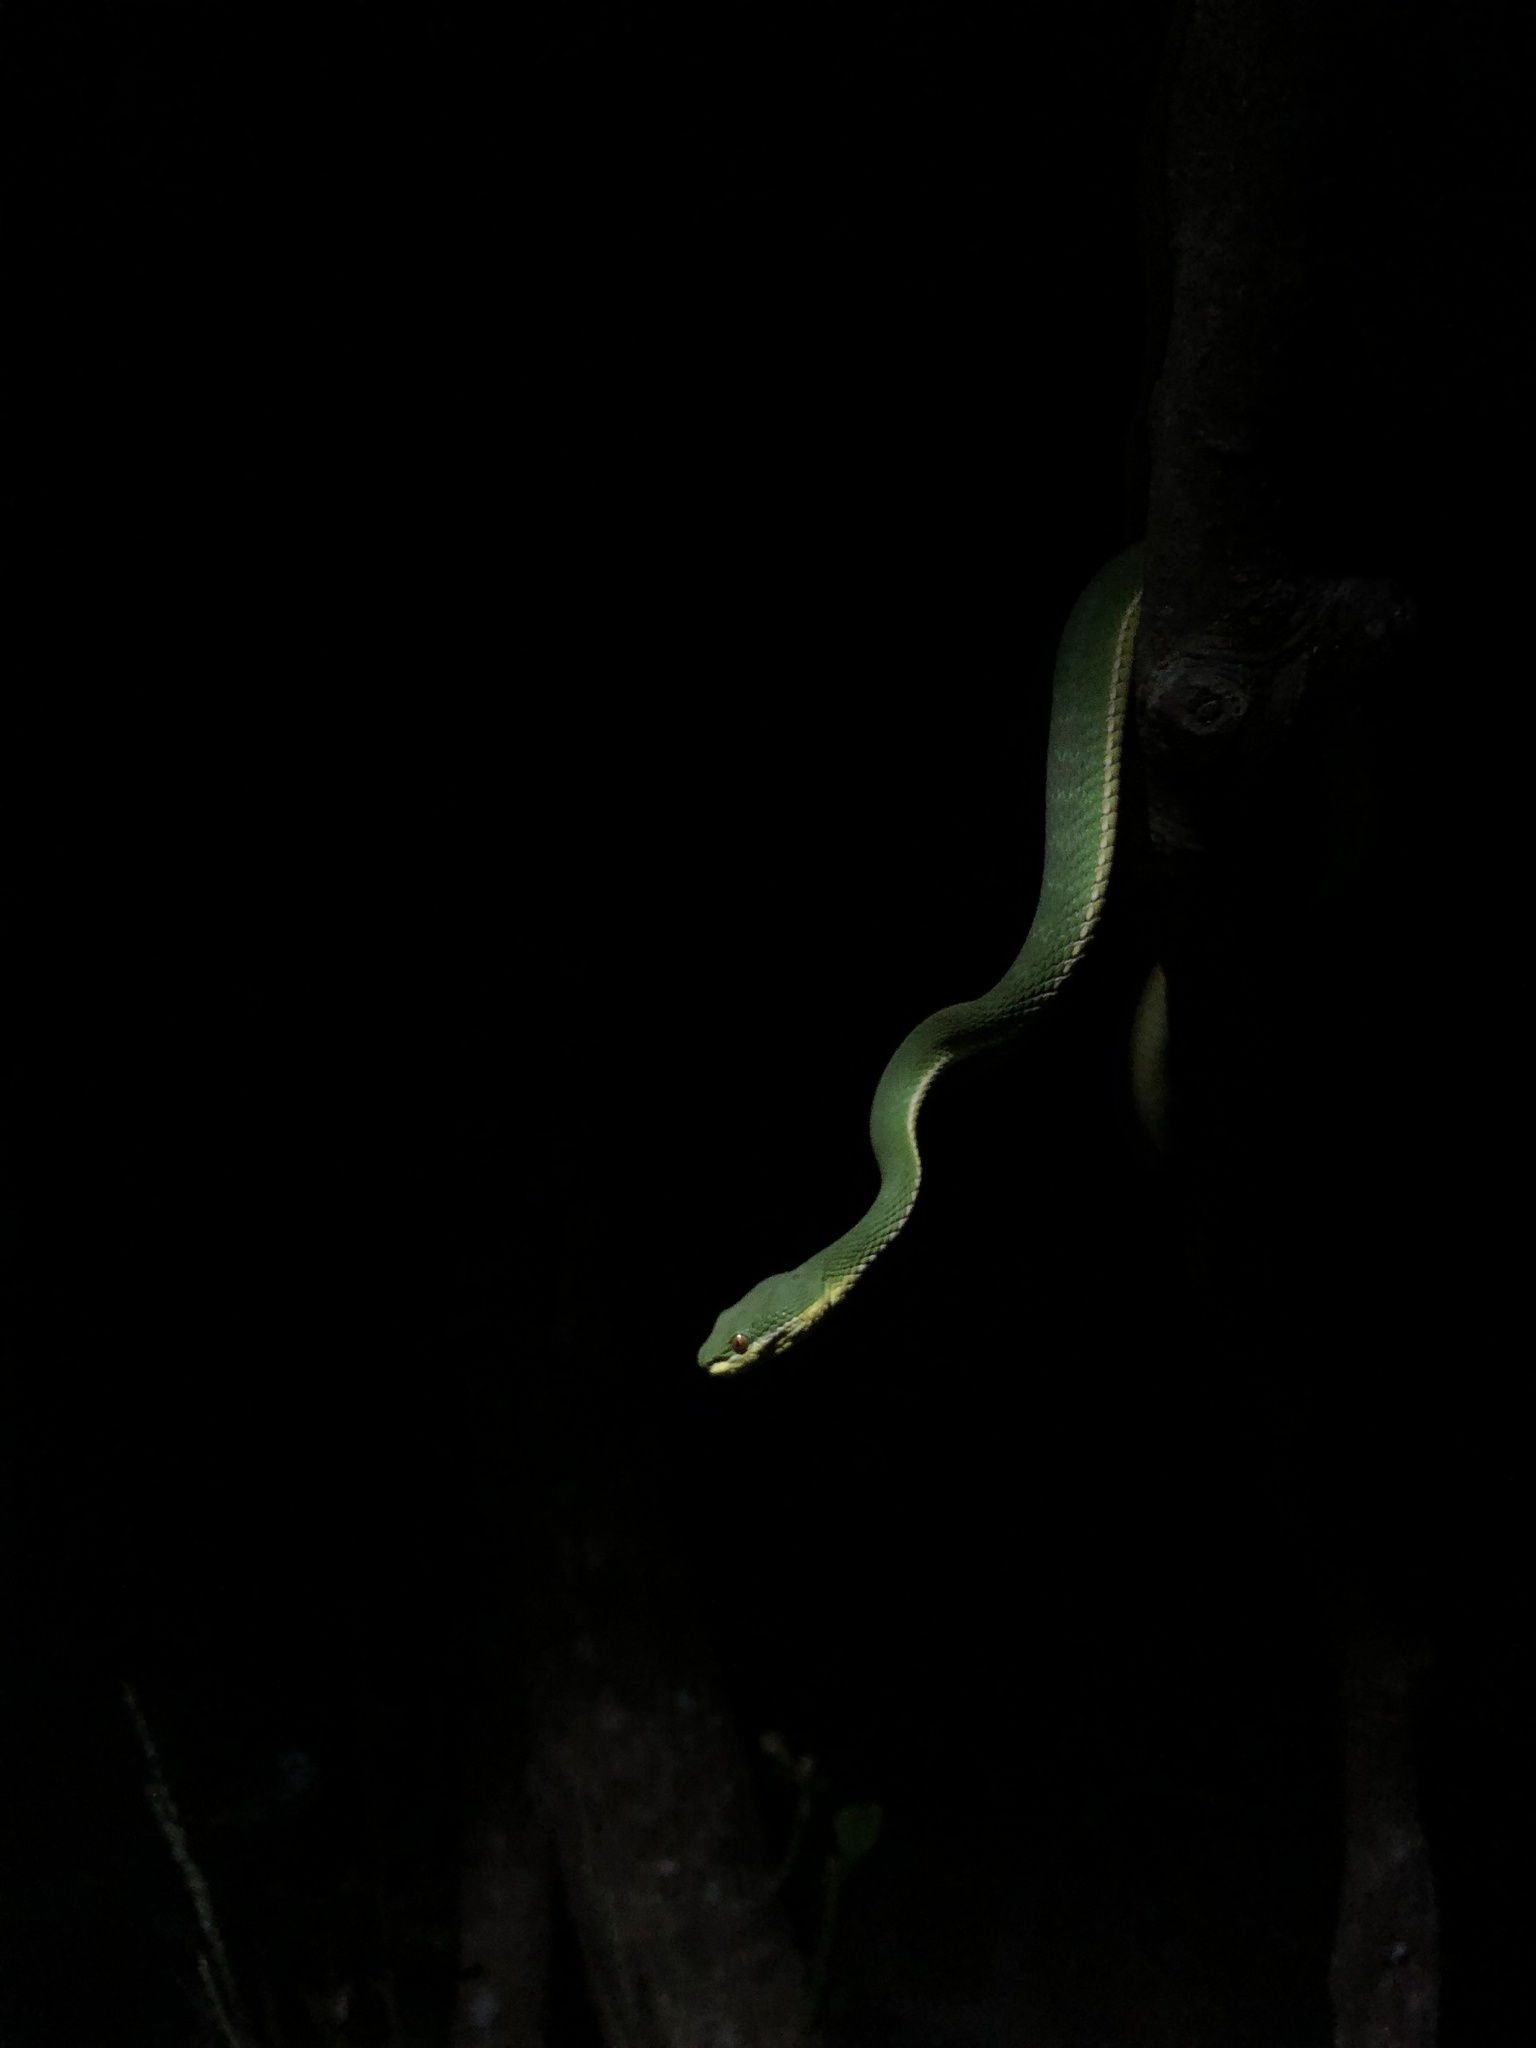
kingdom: Animalia
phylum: Chordata
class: Squamata
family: Viperidae
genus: Trimeresurus
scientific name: Trimeresurus albolabris
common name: White-lipped pitviper
